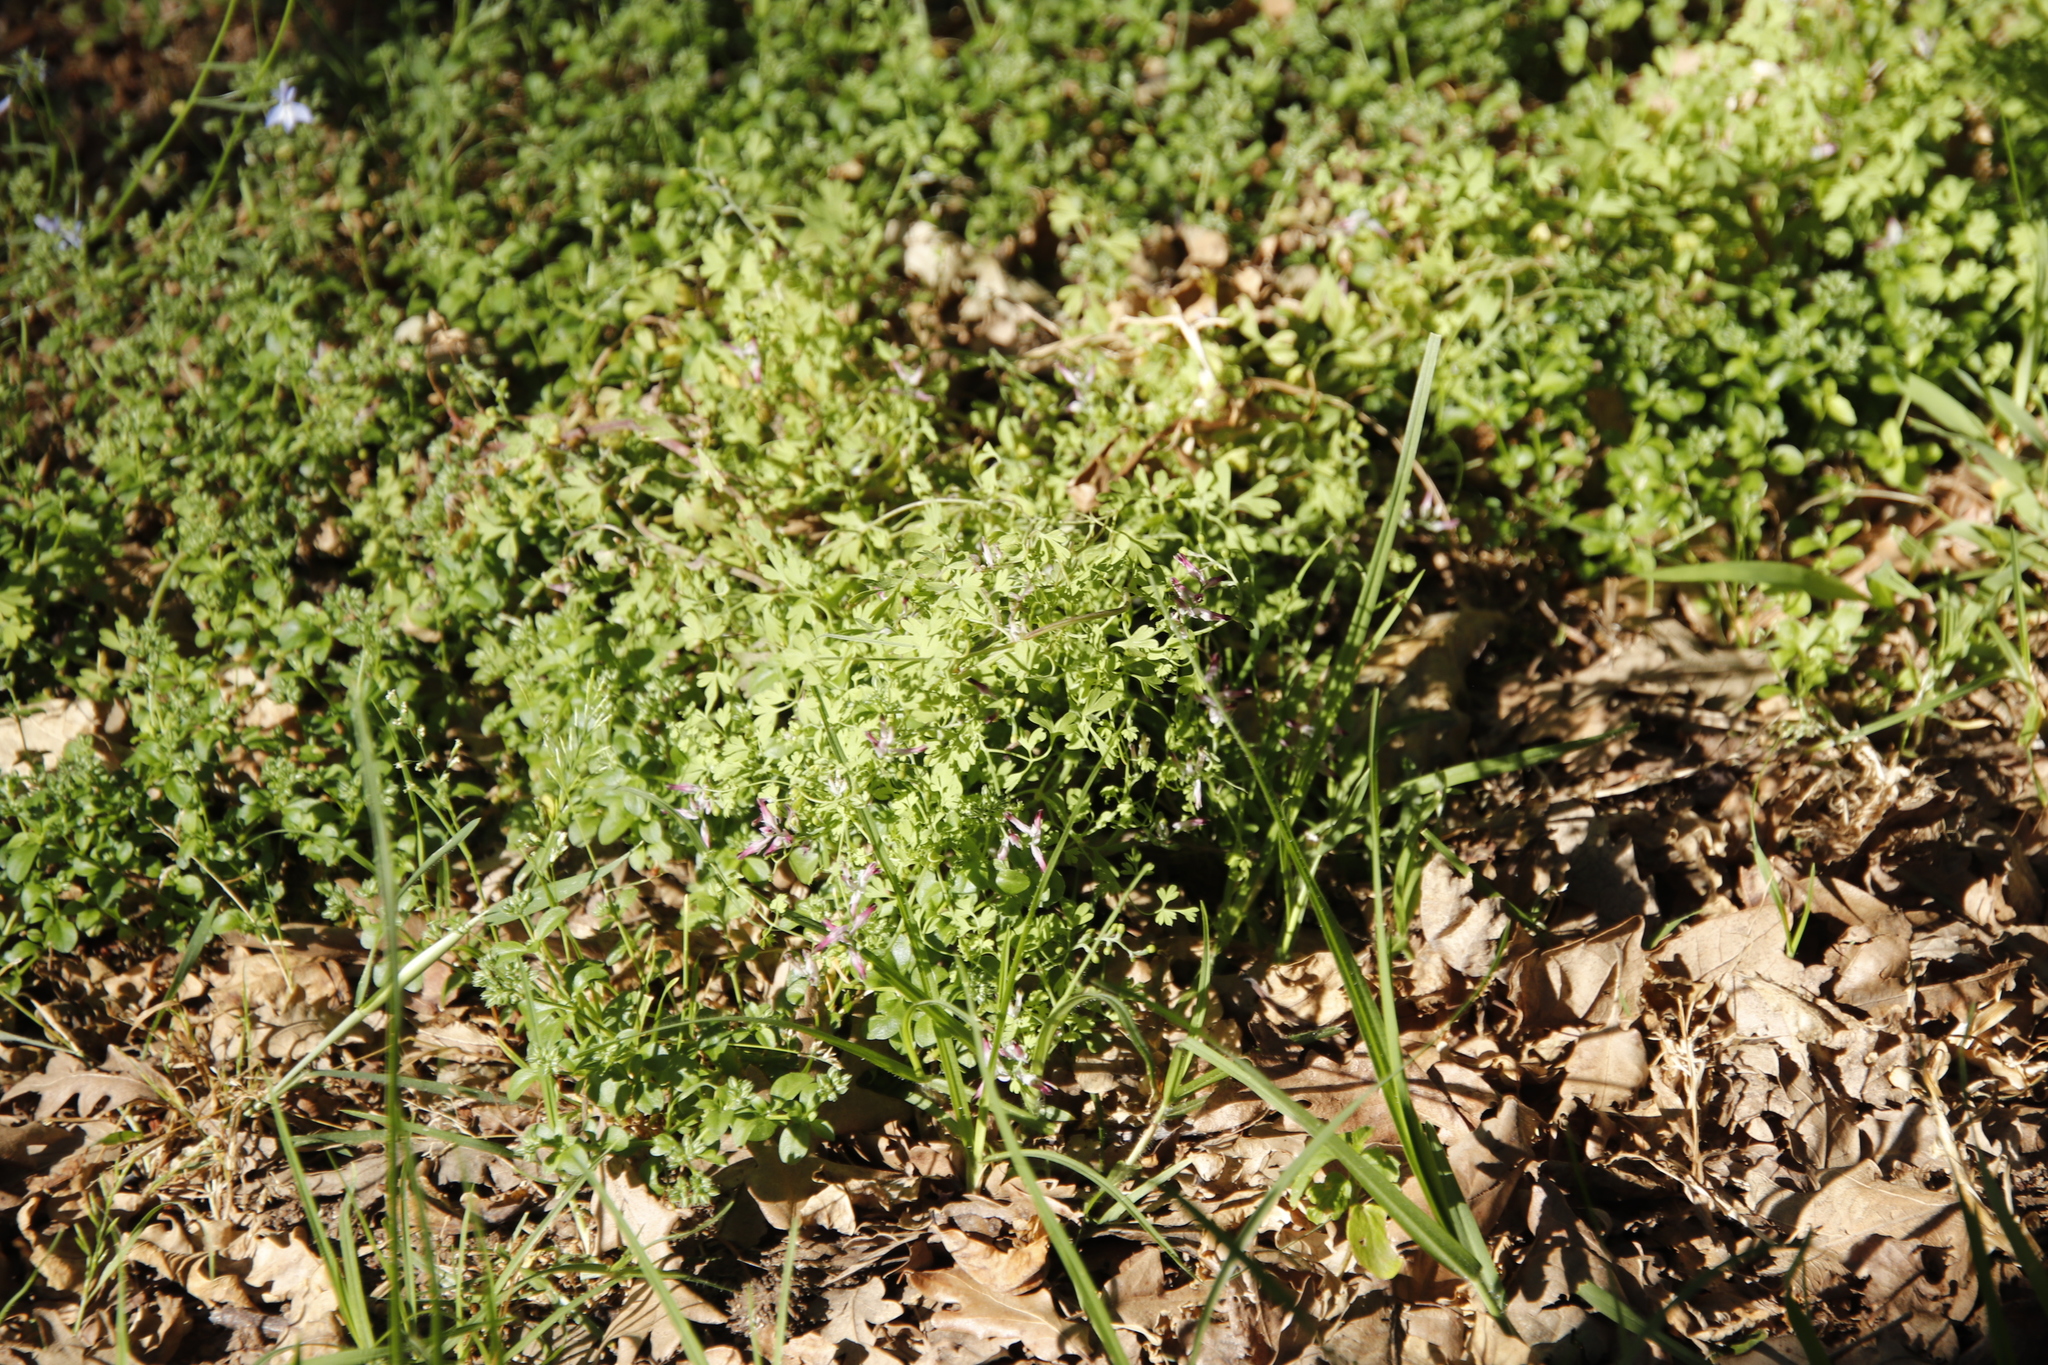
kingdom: Plantae
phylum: Tracheophyta
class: Magnoliopsida
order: Ranunculales
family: Papaveraceae
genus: Fumaria
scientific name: Fumaria muralis
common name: Common ramping-fumitory
